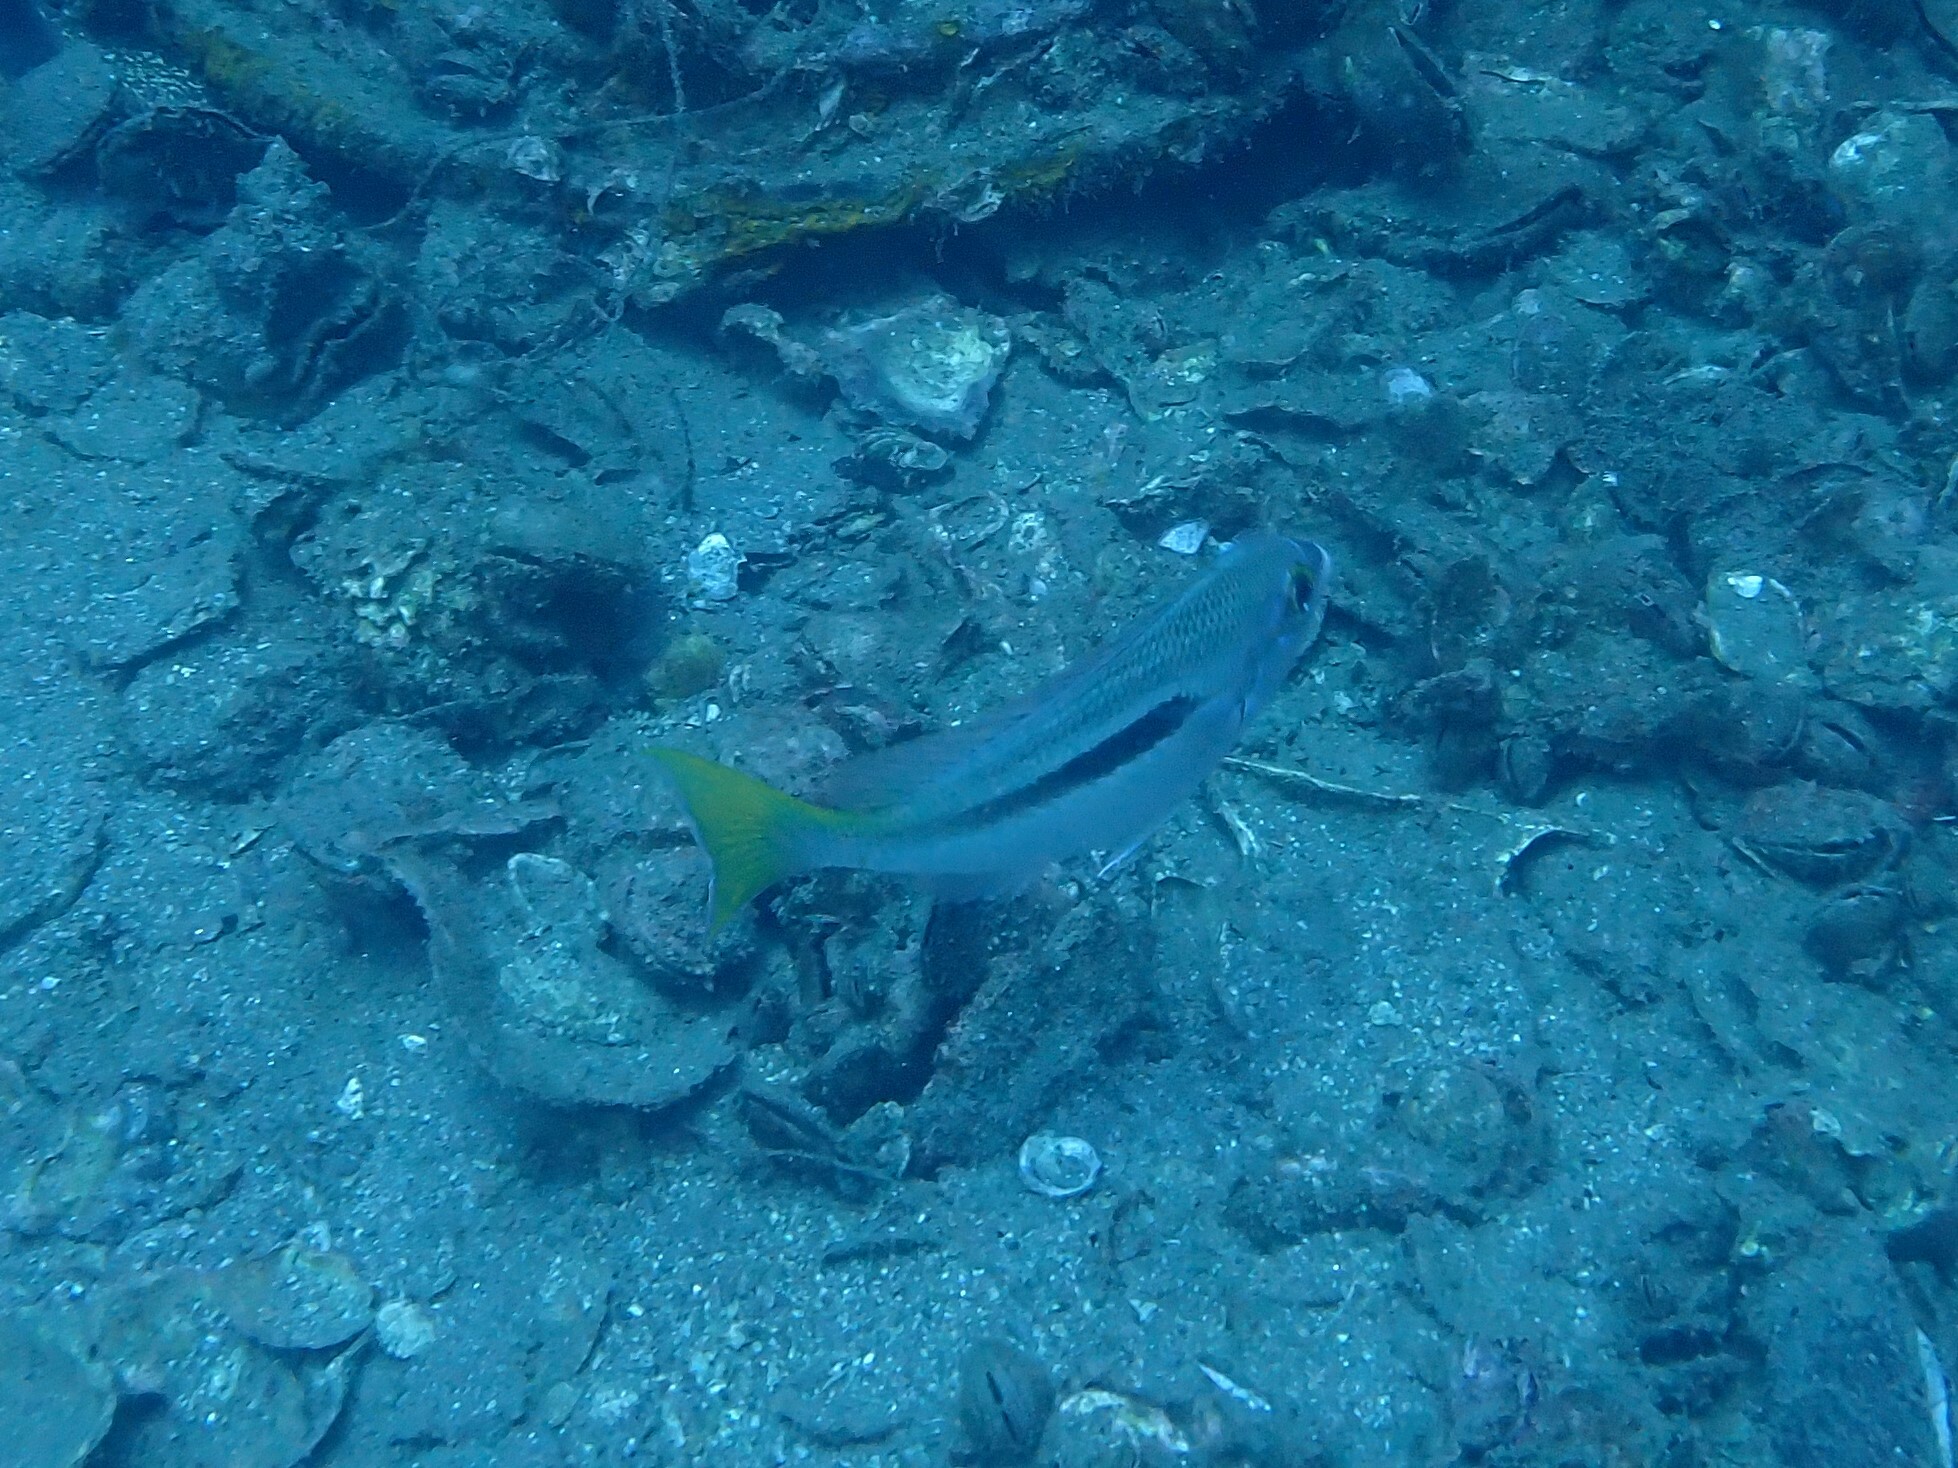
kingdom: Animalia
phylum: Chordata
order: Perciformes
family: Nemipteridae
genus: Scolopsis
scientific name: Scolopsis monogramma
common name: Monogrammed monocle bream
